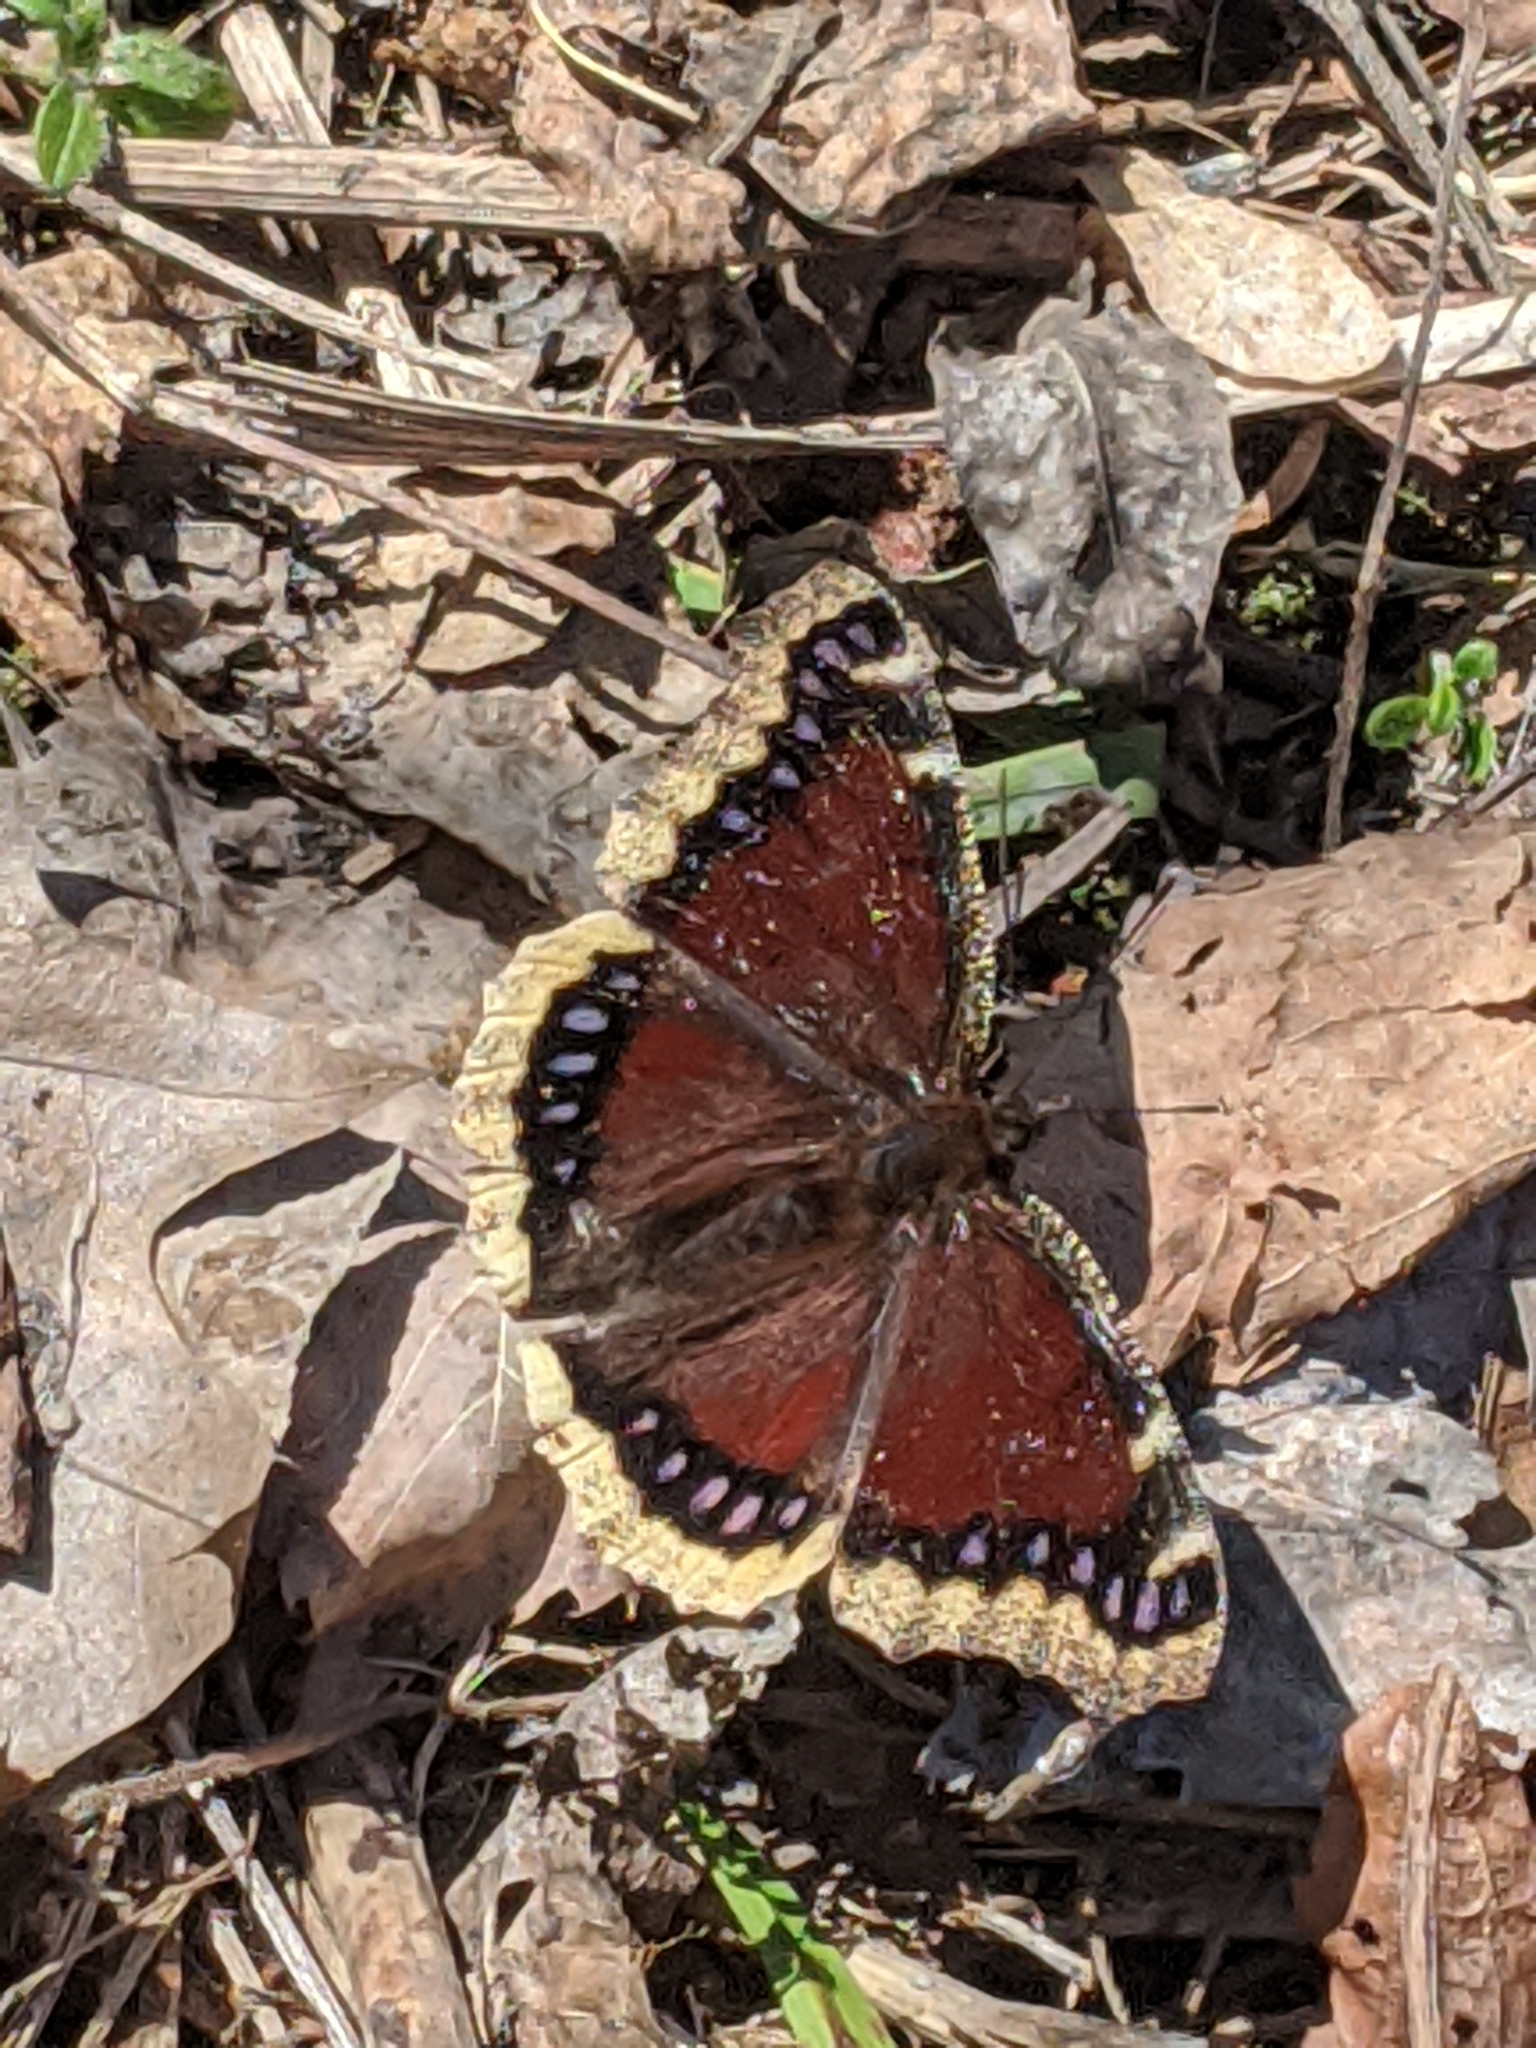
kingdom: Animalia
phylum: Arthropoda
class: Insecta
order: Lepidoptera
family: Nymphalidae
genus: Nymphalis
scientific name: Nymphalis antiopa
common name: Camberwell beauty
